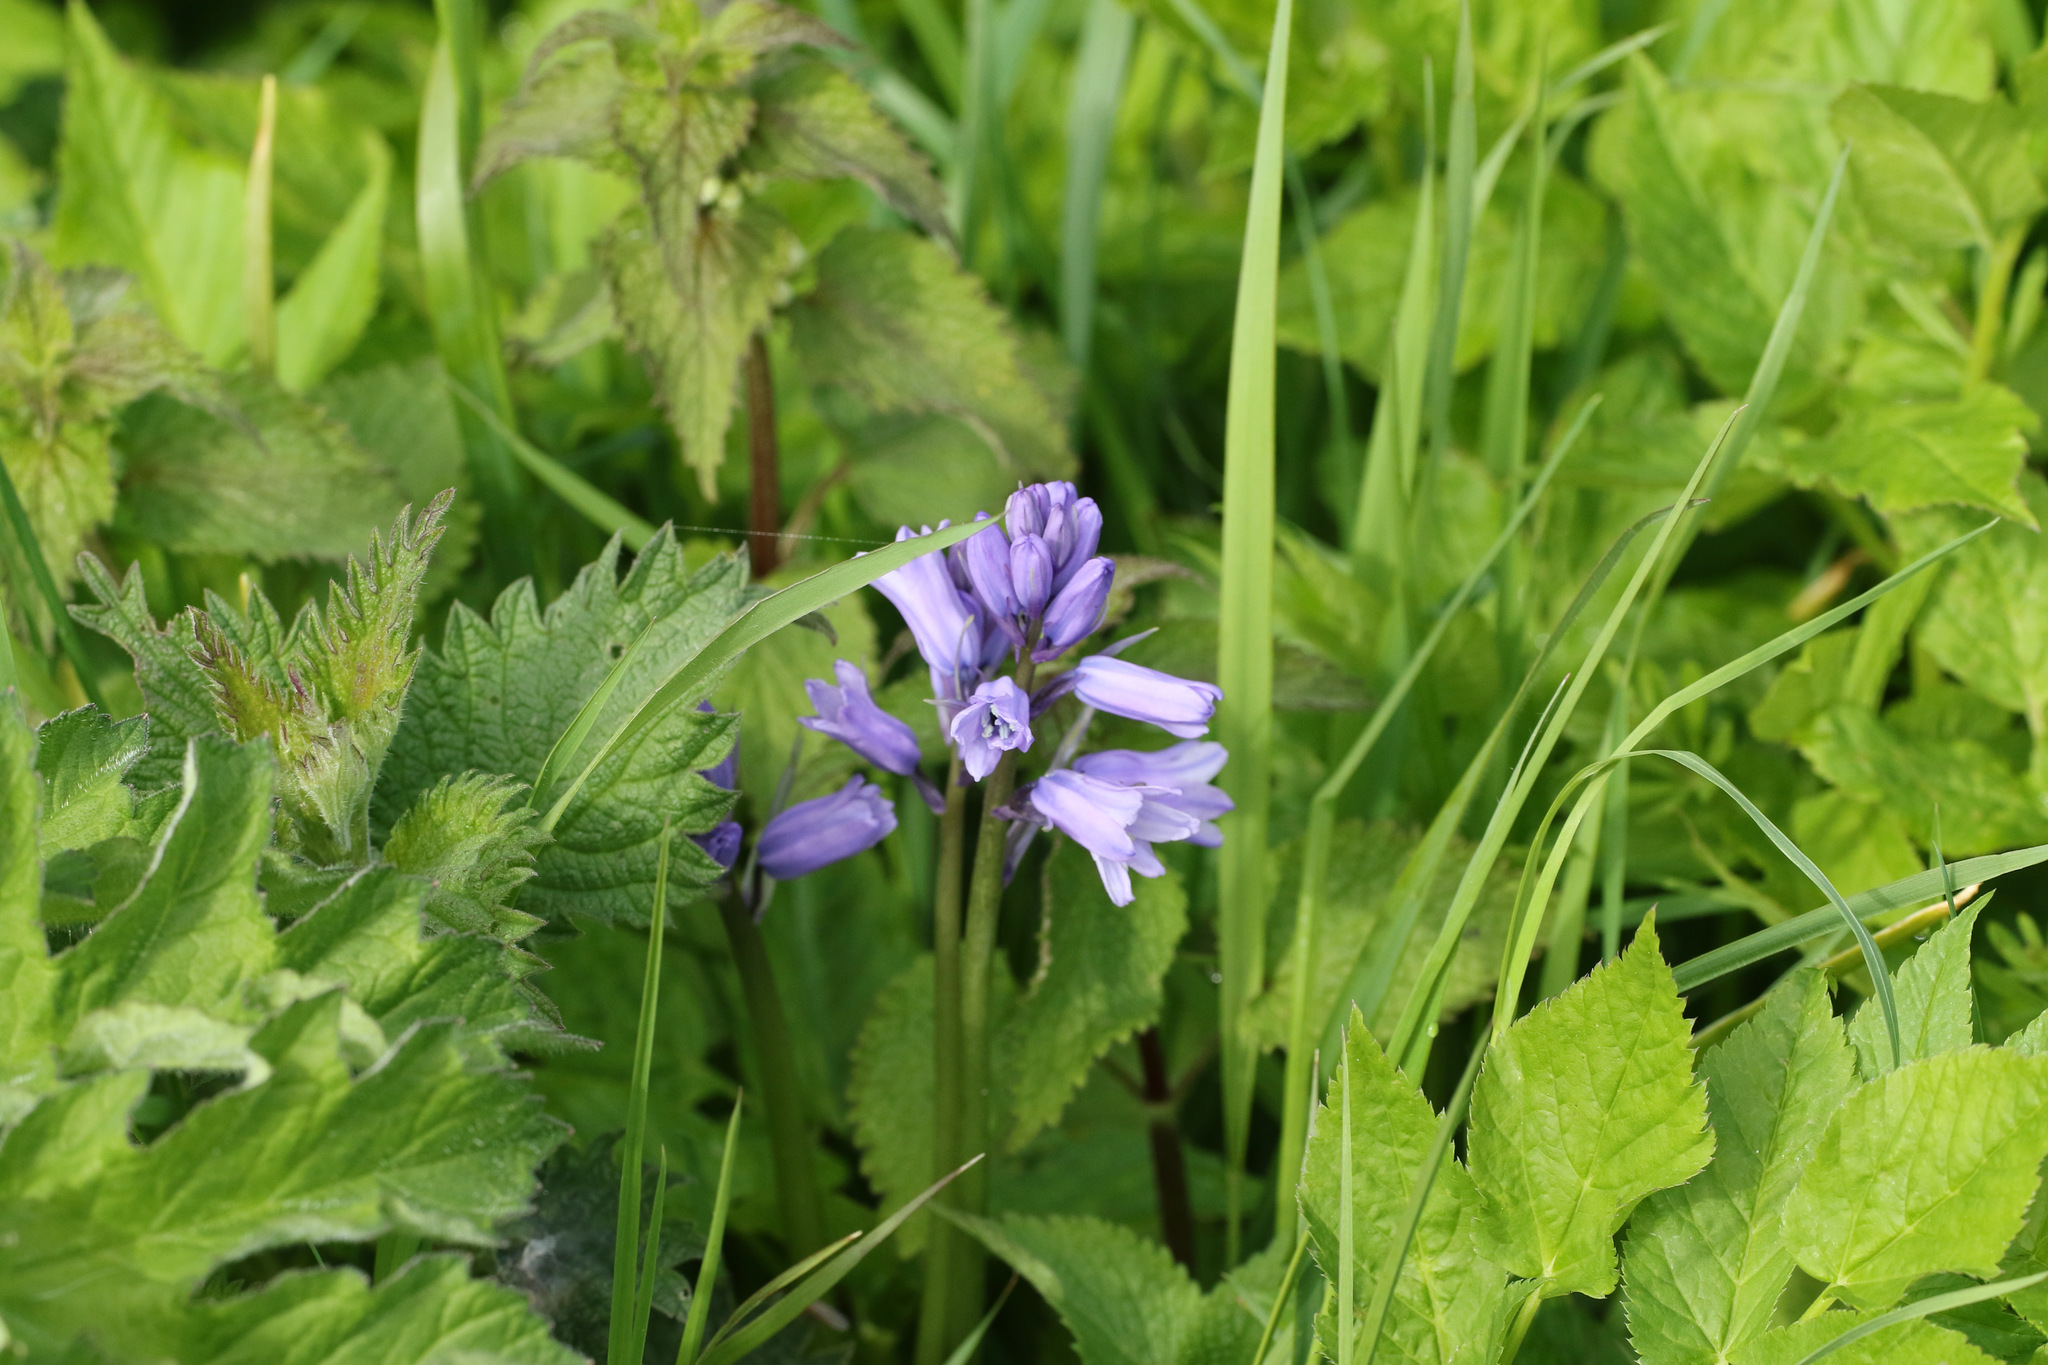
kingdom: Plantae
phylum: Tracheophyta
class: Liliopsida
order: Asparagales
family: Asparagaceae
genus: Hyacinthoides
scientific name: Hyacinthoides hispanica
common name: Spanish bluebell
